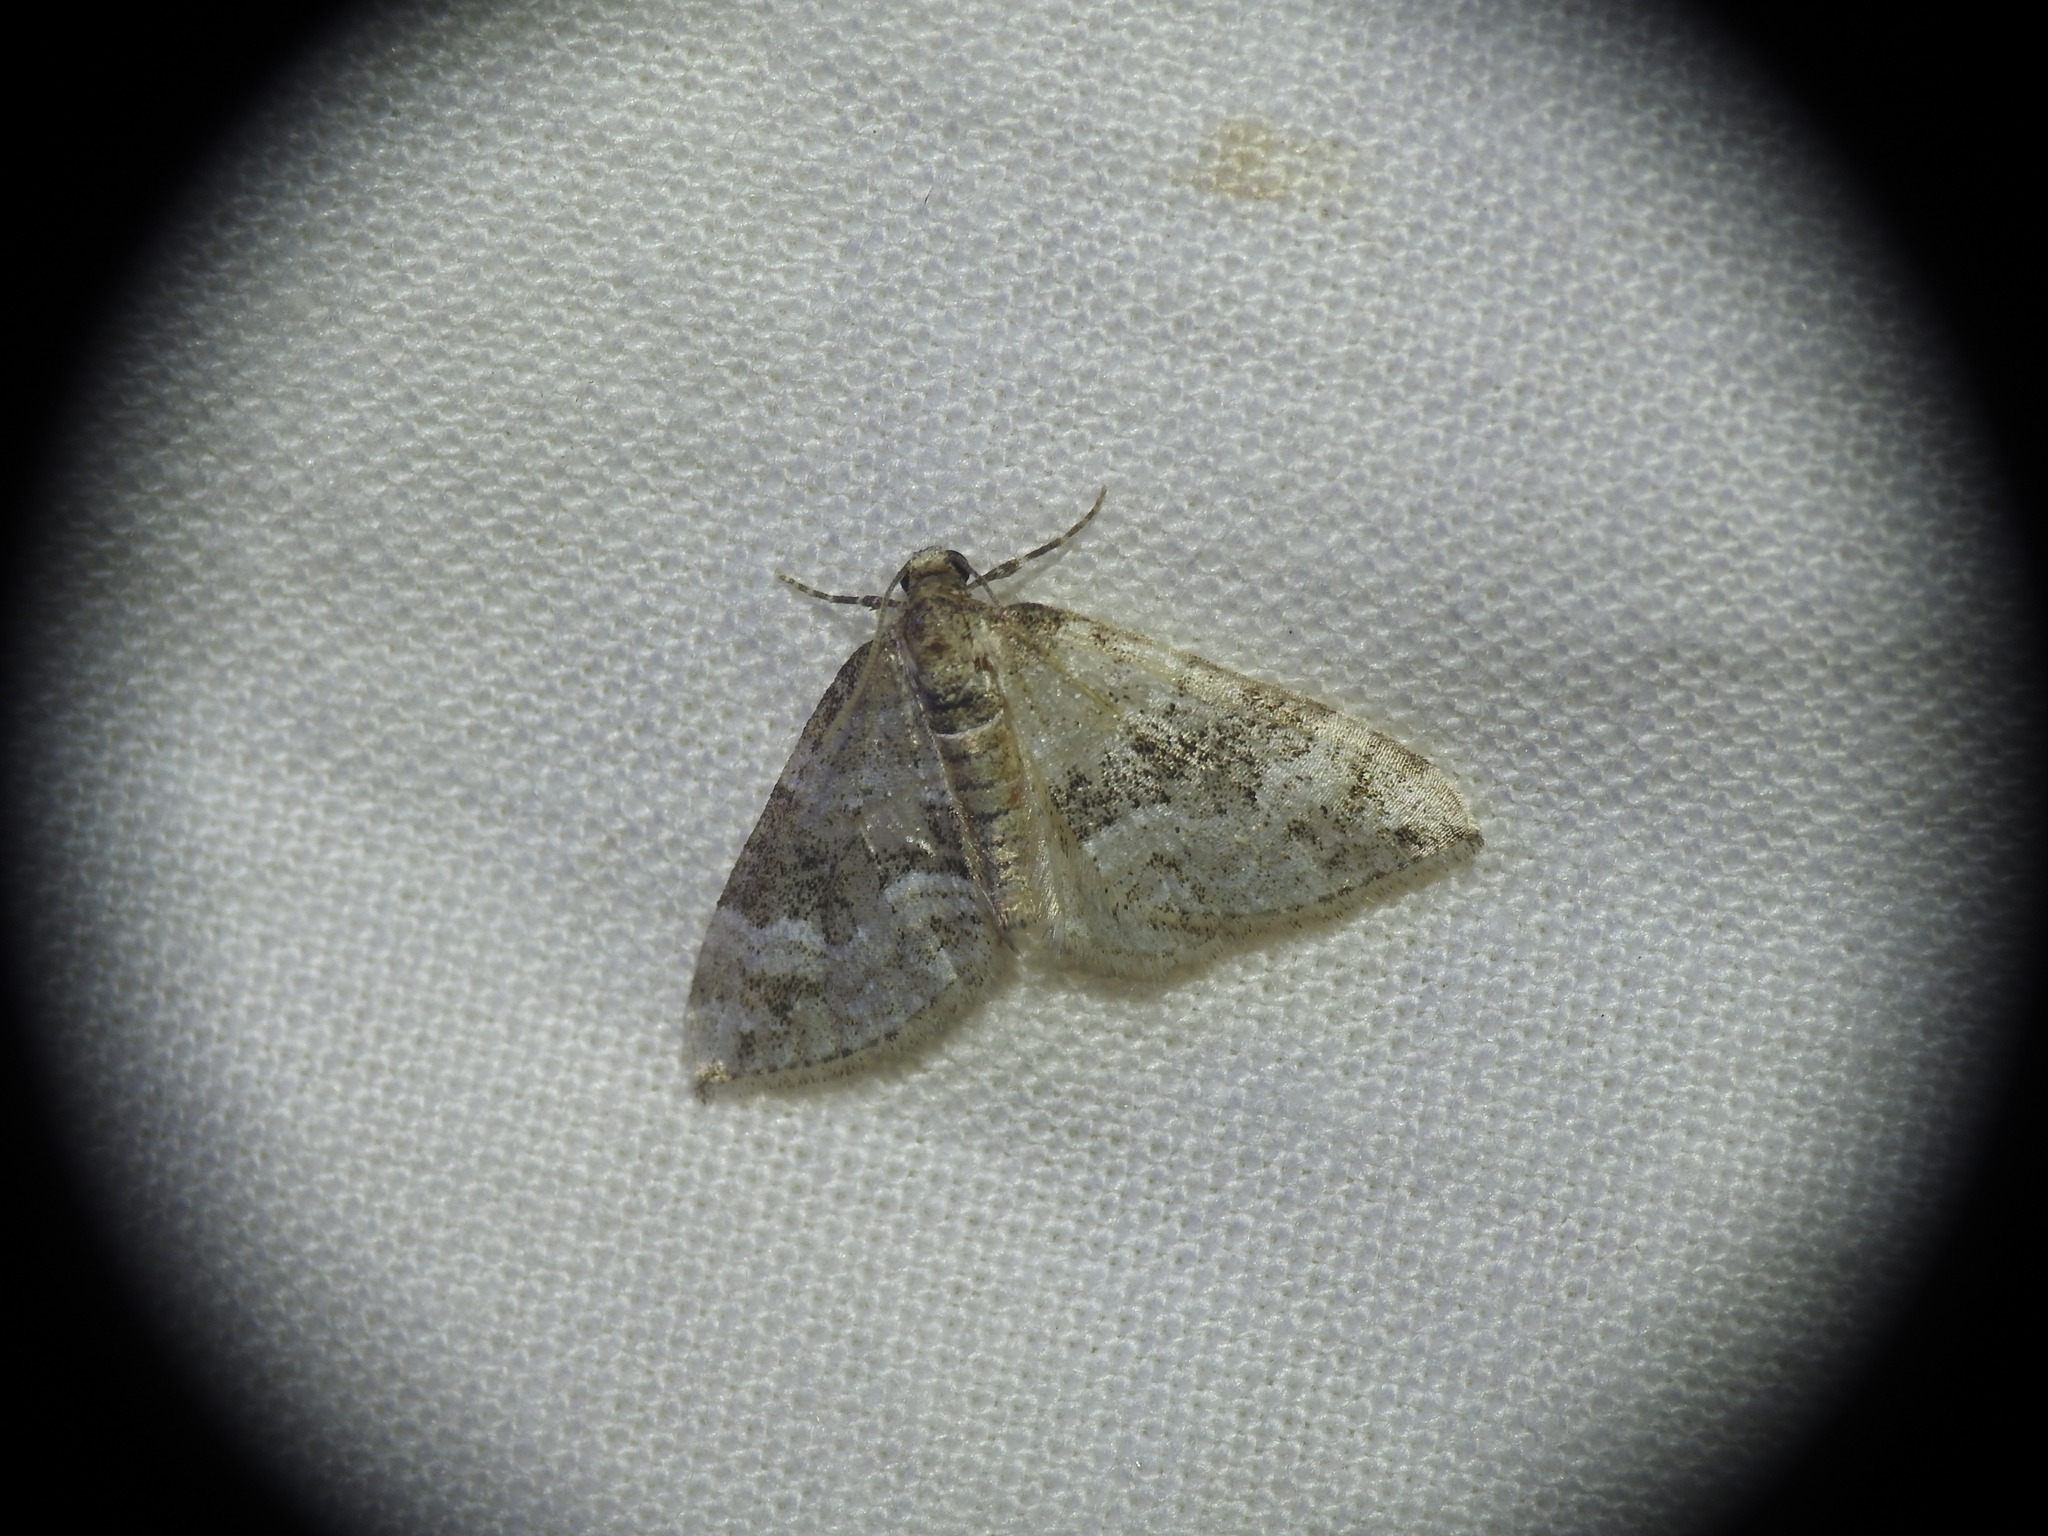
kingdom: Animalia
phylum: Arthropoda
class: Insecta
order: Lepidoptera
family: Geometridae
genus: Perizoma
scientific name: Perizoma bifaciata
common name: Barred rivulet
